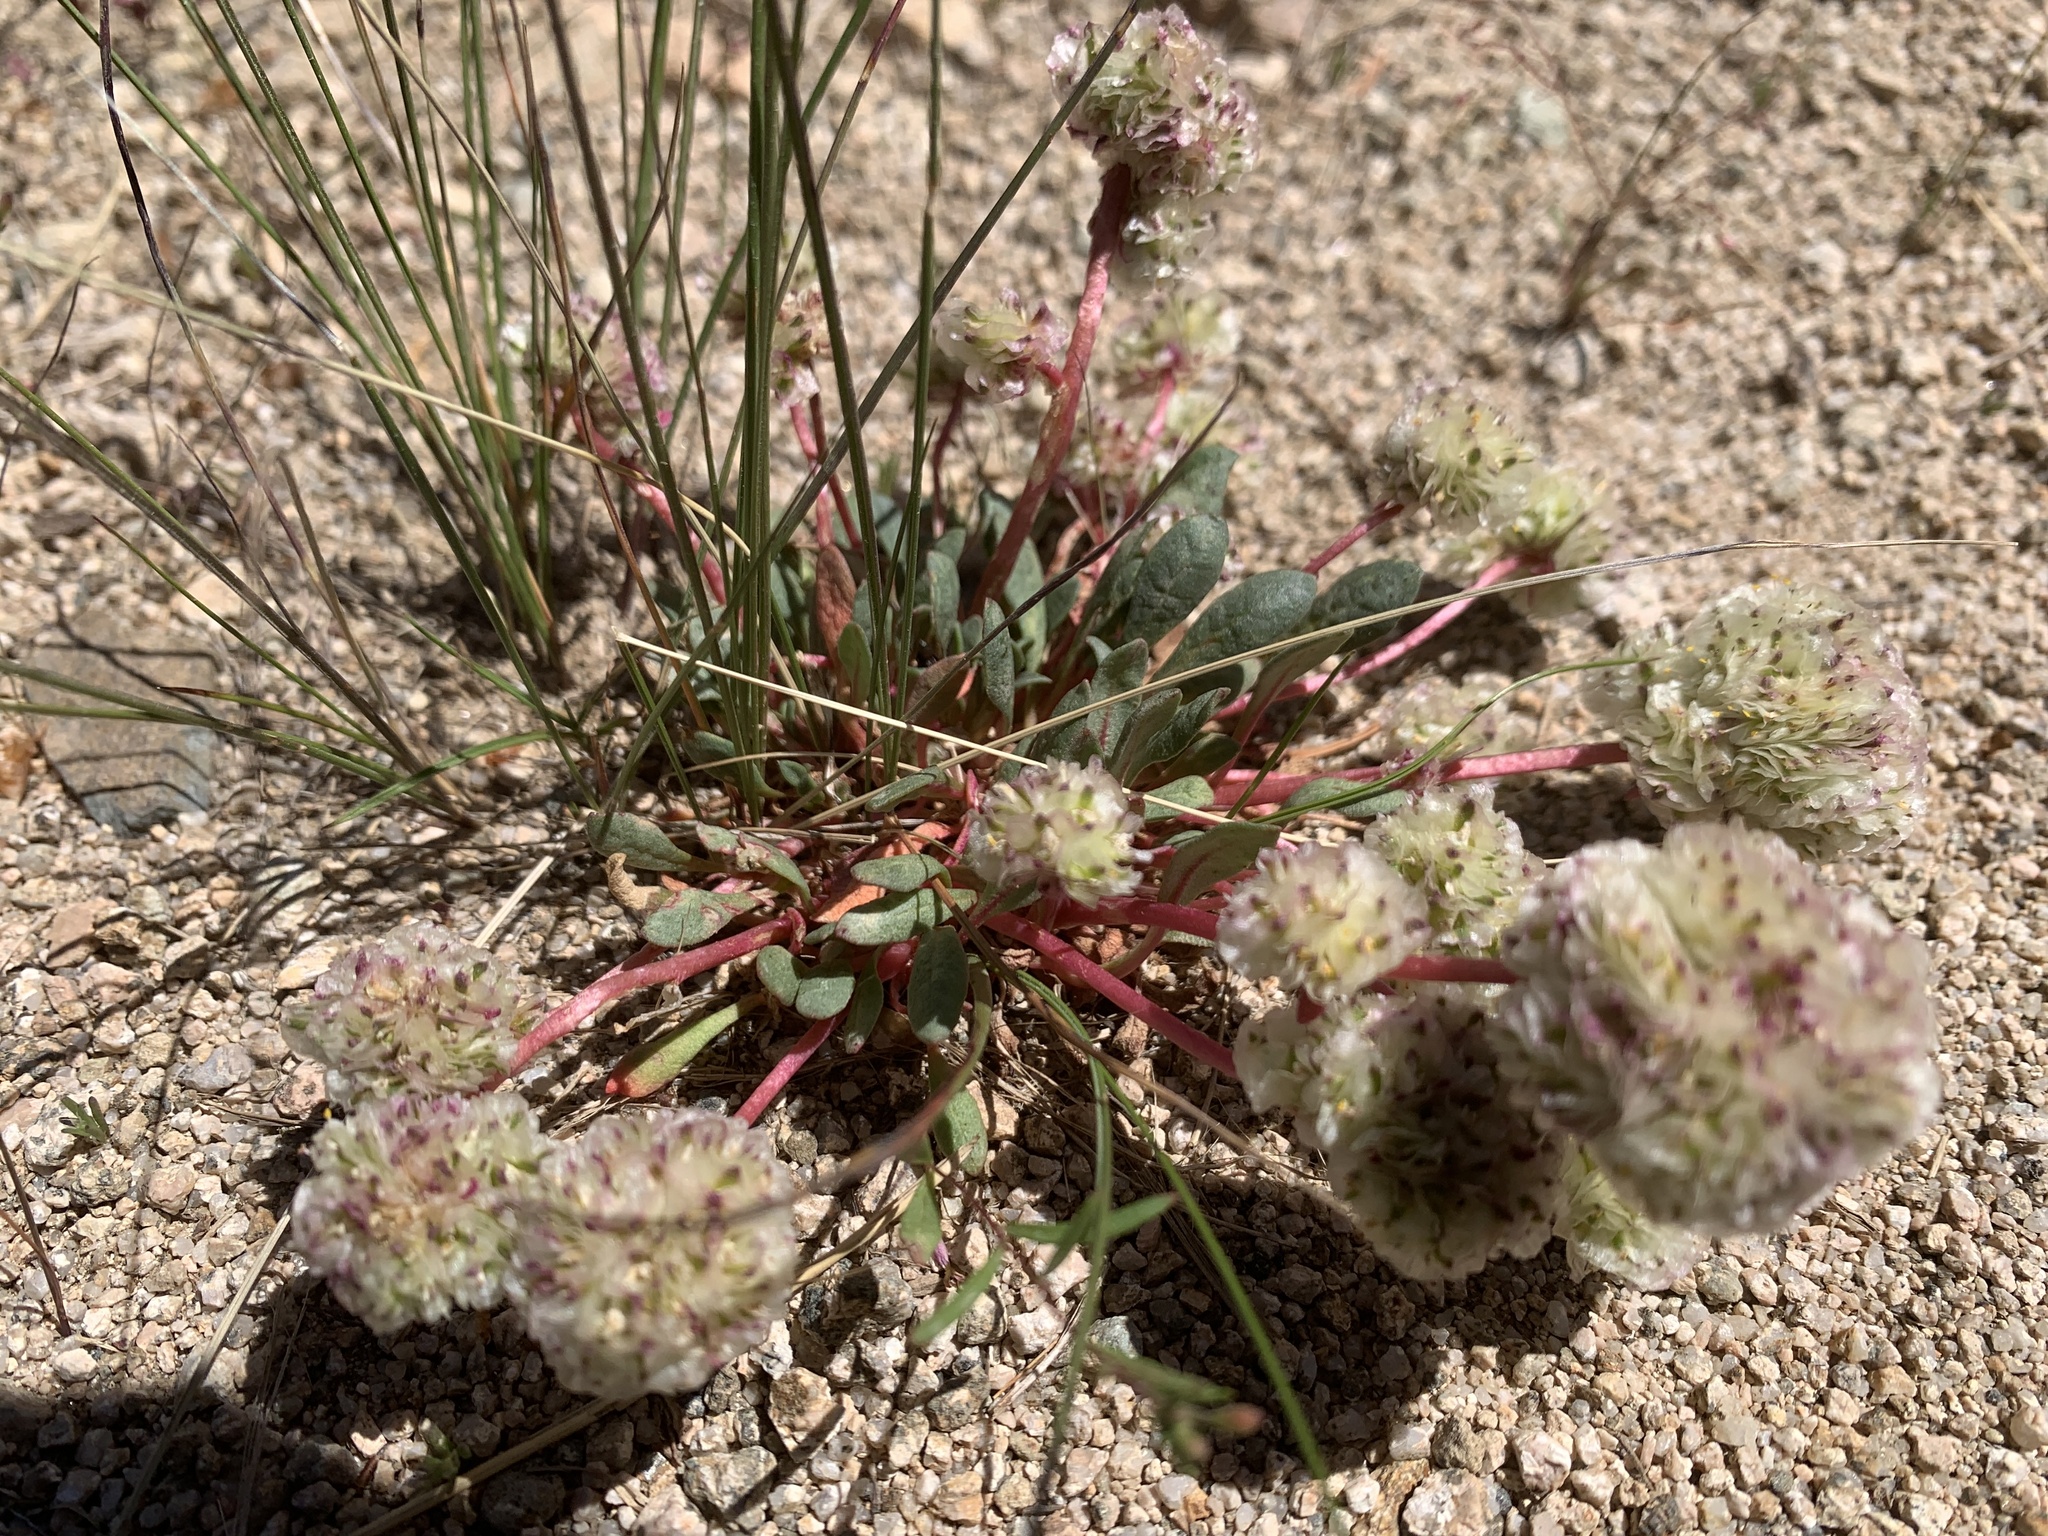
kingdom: Plantae
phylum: Tracheophyta
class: Magnoliopsida
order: Caryophyllales
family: Montiaceae
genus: Calyptridium
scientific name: Calyptridium umbellatum
